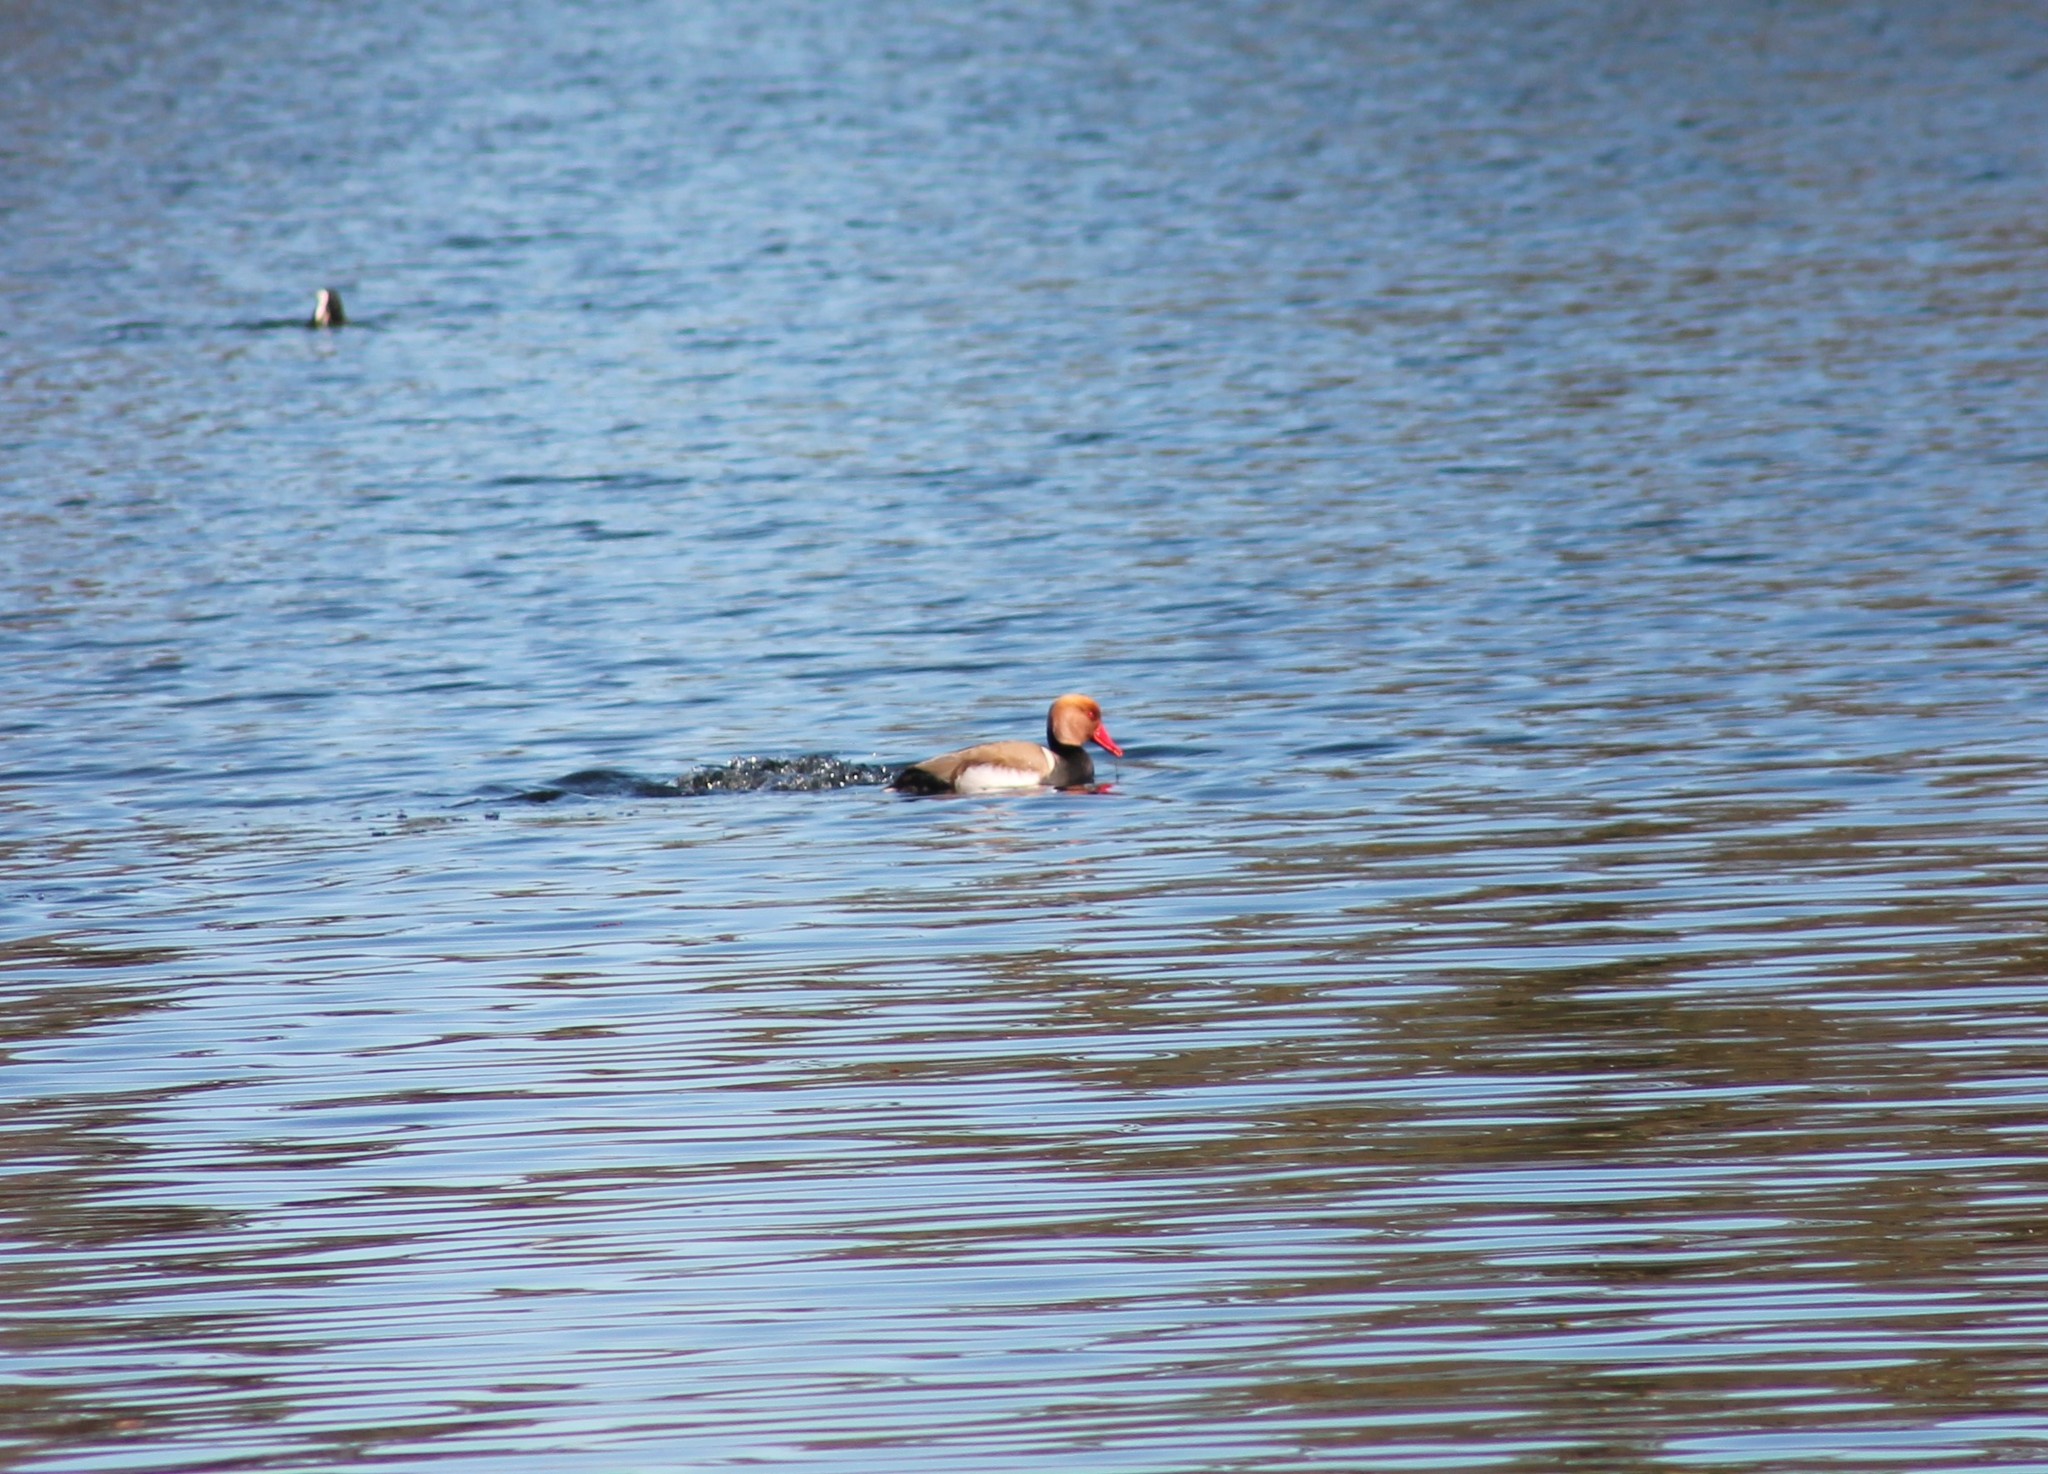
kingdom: Animalia
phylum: Chordata
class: Aves
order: Anseriformes
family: Anatidae
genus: Netta
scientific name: Netta rufina
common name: Red-crested pochard
